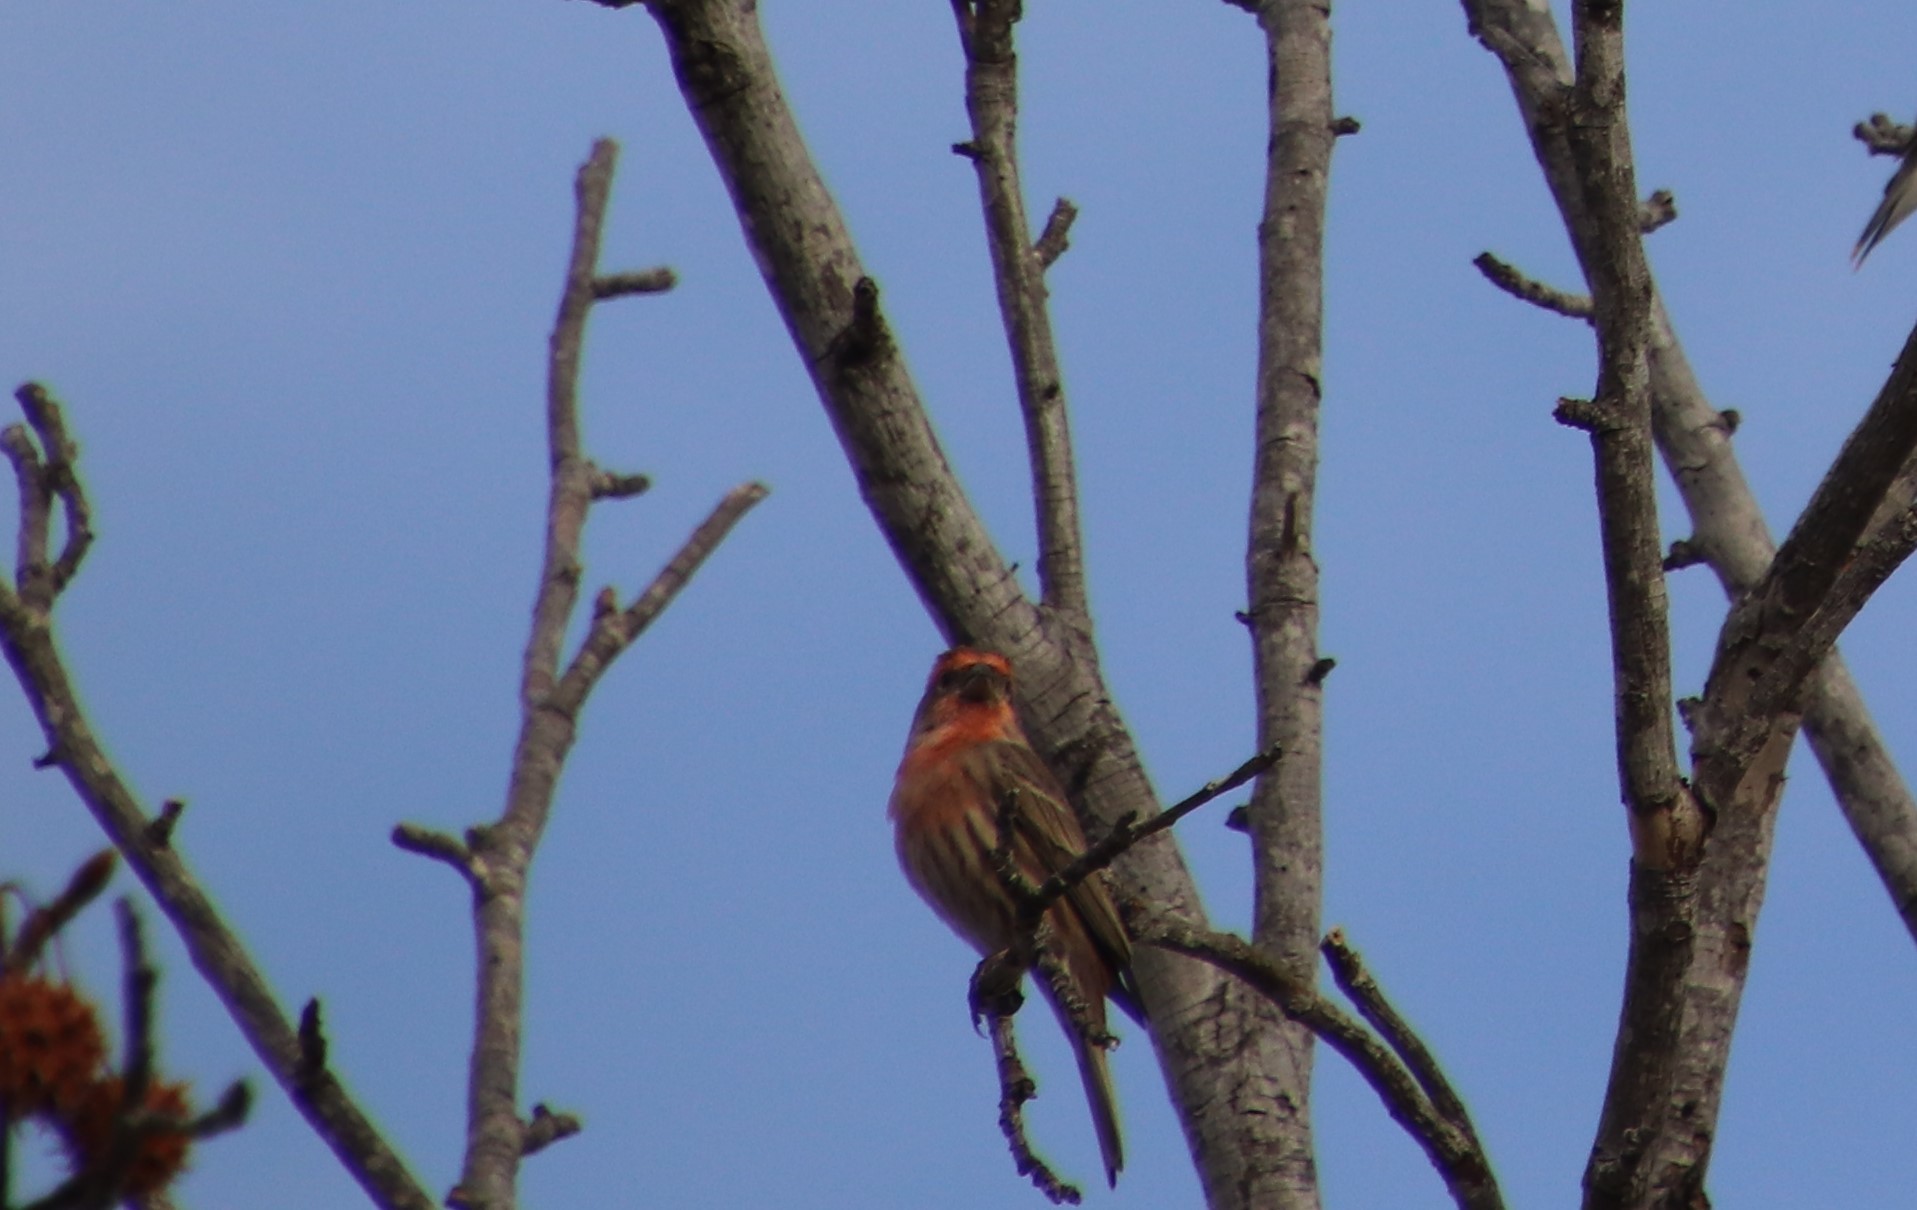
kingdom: Animalia
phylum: Chordata
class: Aves
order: Passeriformes
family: Fringillidae
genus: Haemorhous
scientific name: Haemorhous mexicanus
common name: House finch
